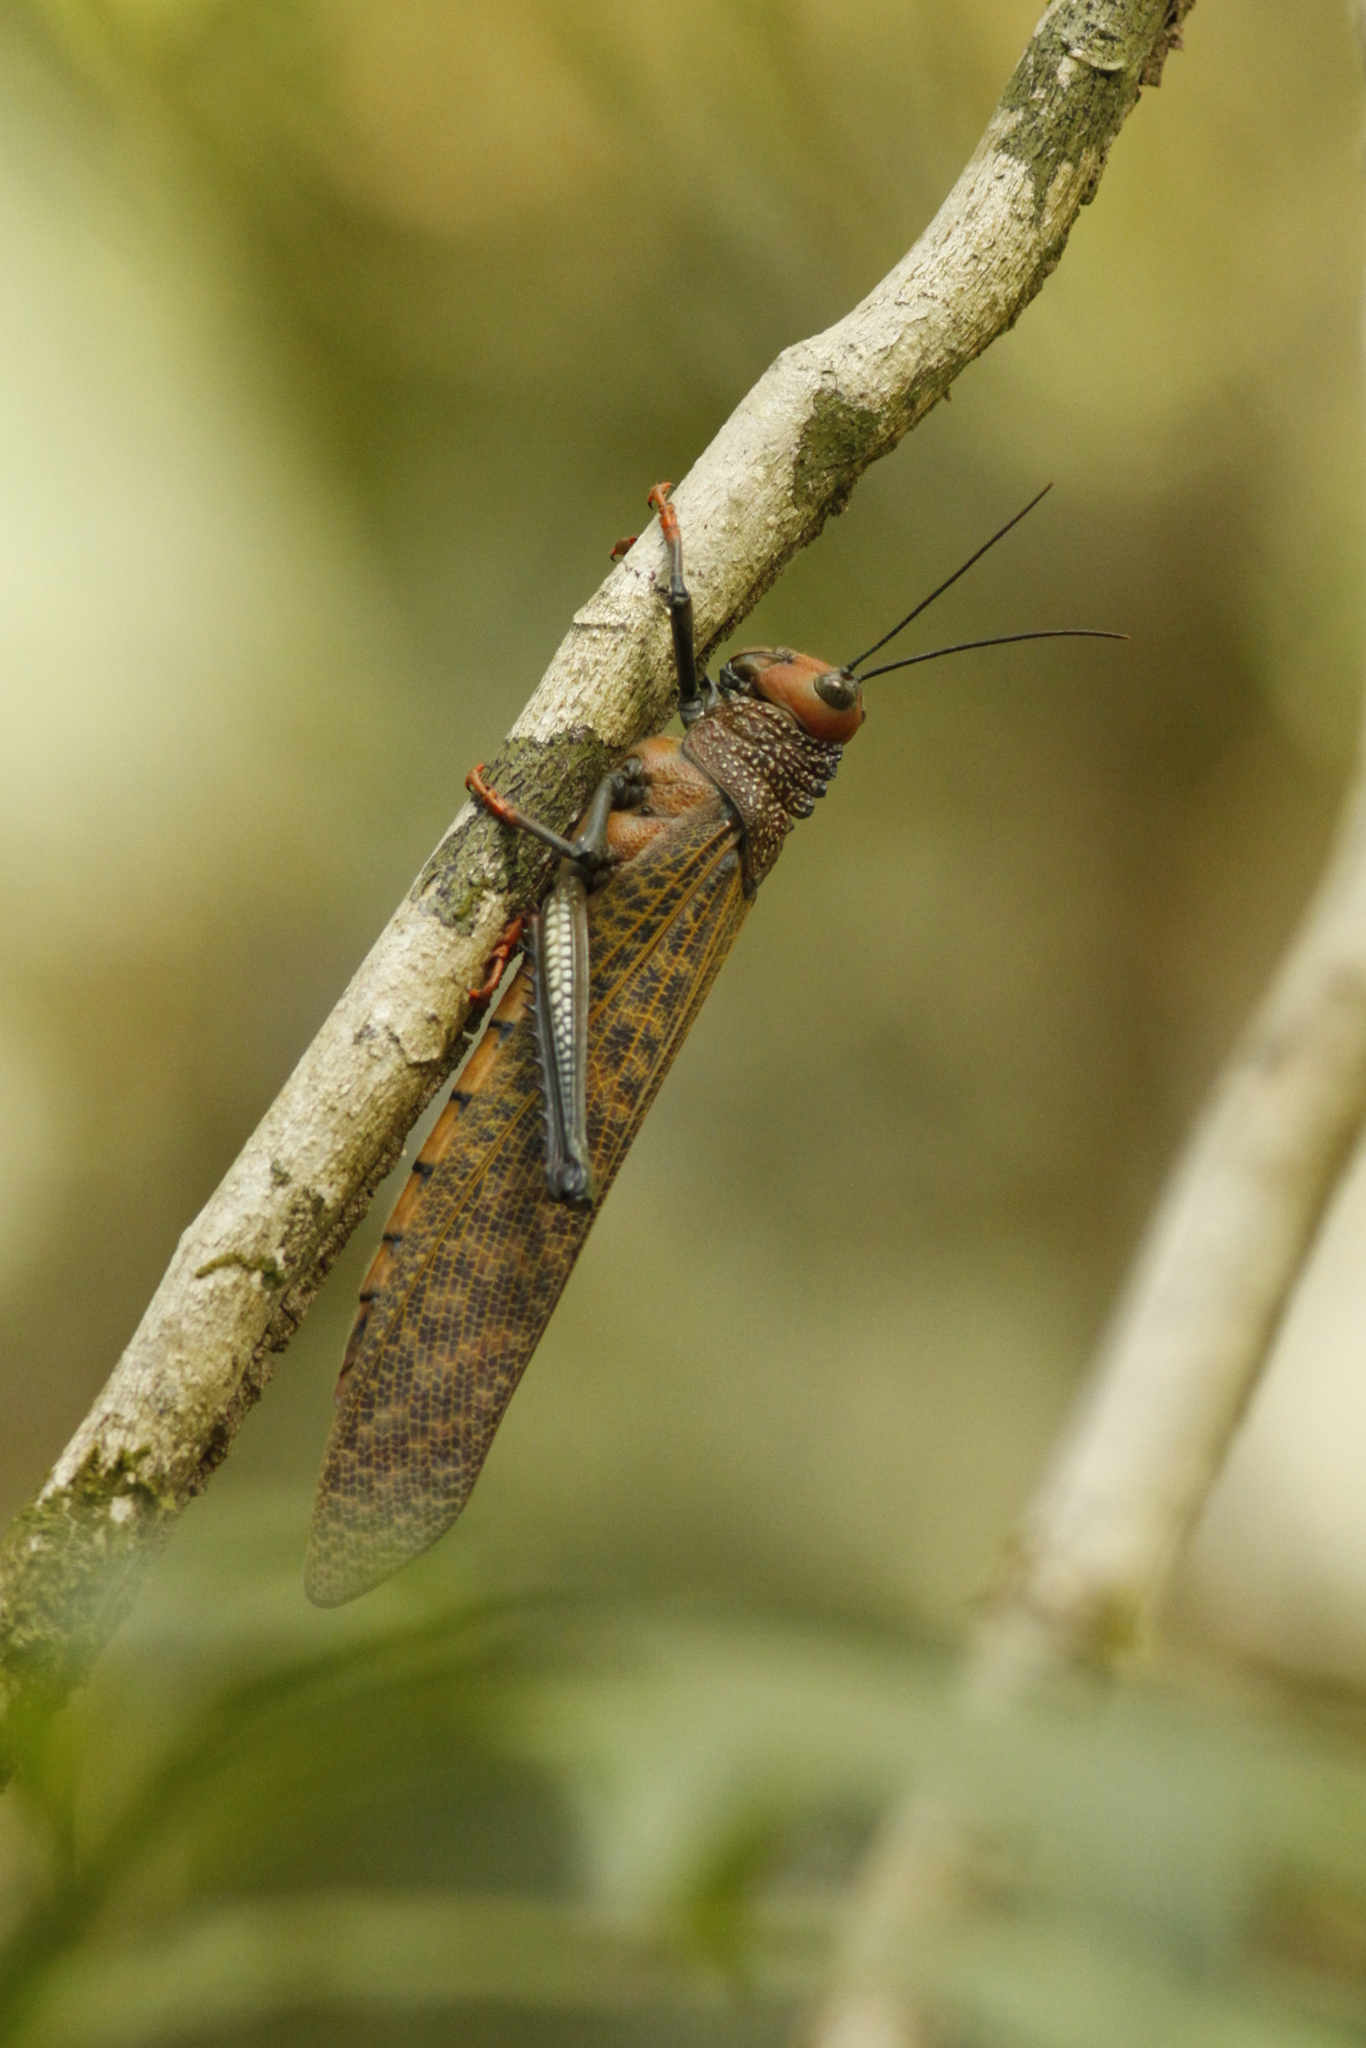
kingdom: Animalia
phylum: Arthropoda
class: Insecta
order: Orthoptera
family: Romaleidae
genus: Tropidacris
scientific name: Tropidacris cristata
